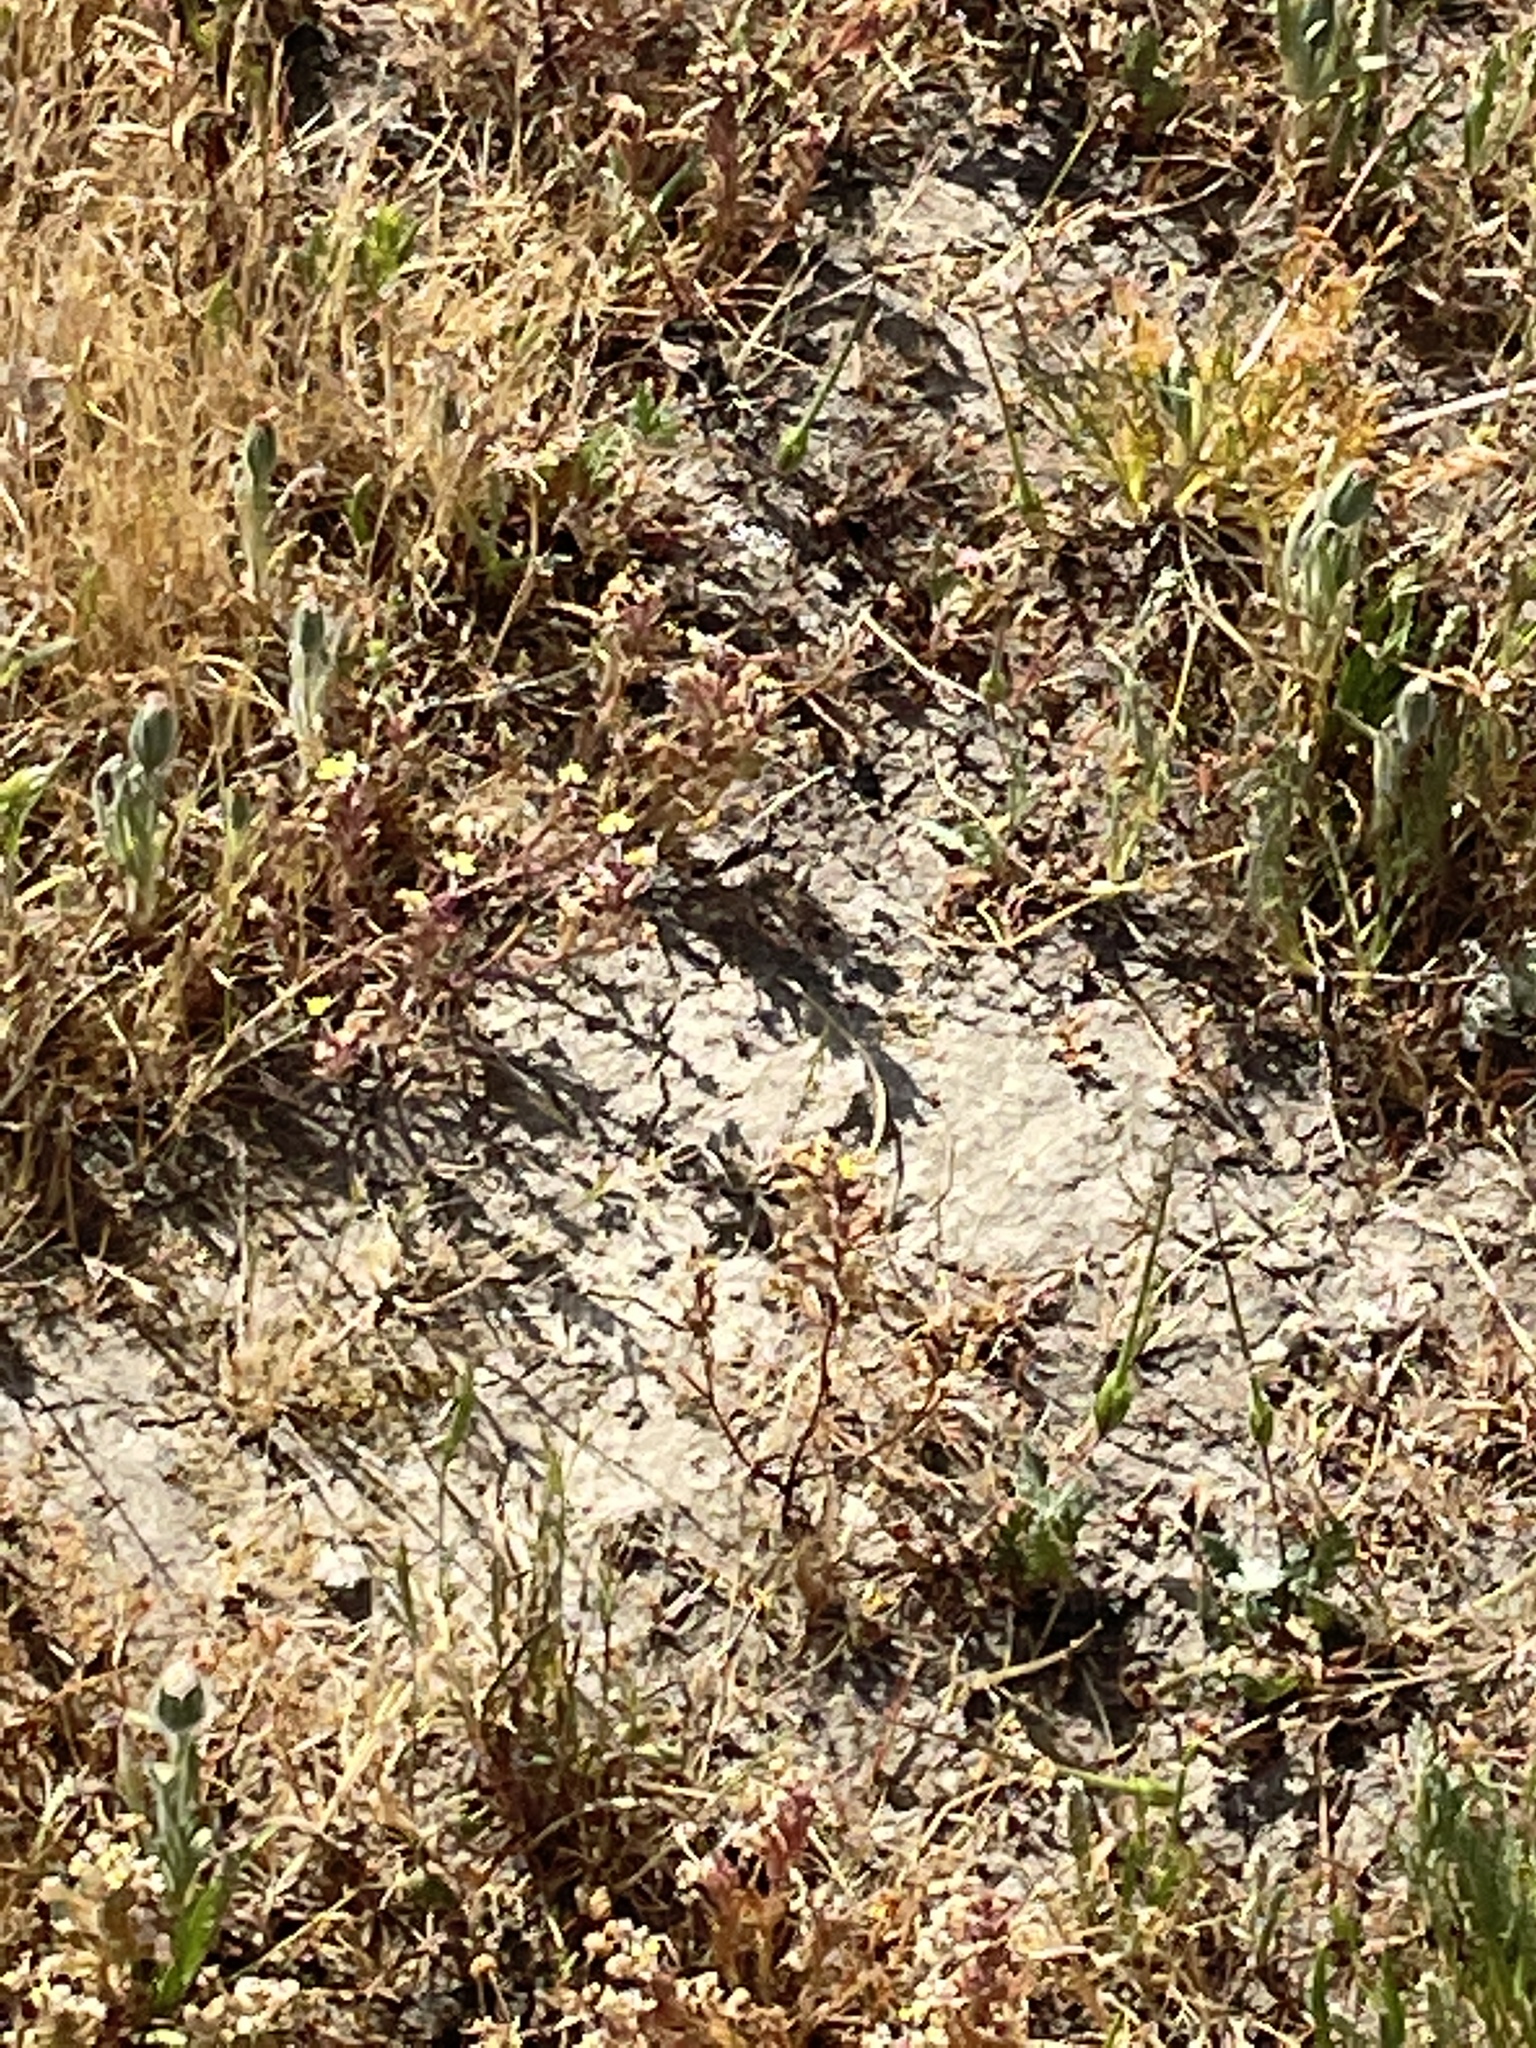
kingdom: Plantae
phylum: Tracheophyta
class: Liliopsida
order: Poales
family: Poaceae
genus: Deschampsia
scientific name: Deschampsia danthonioides
